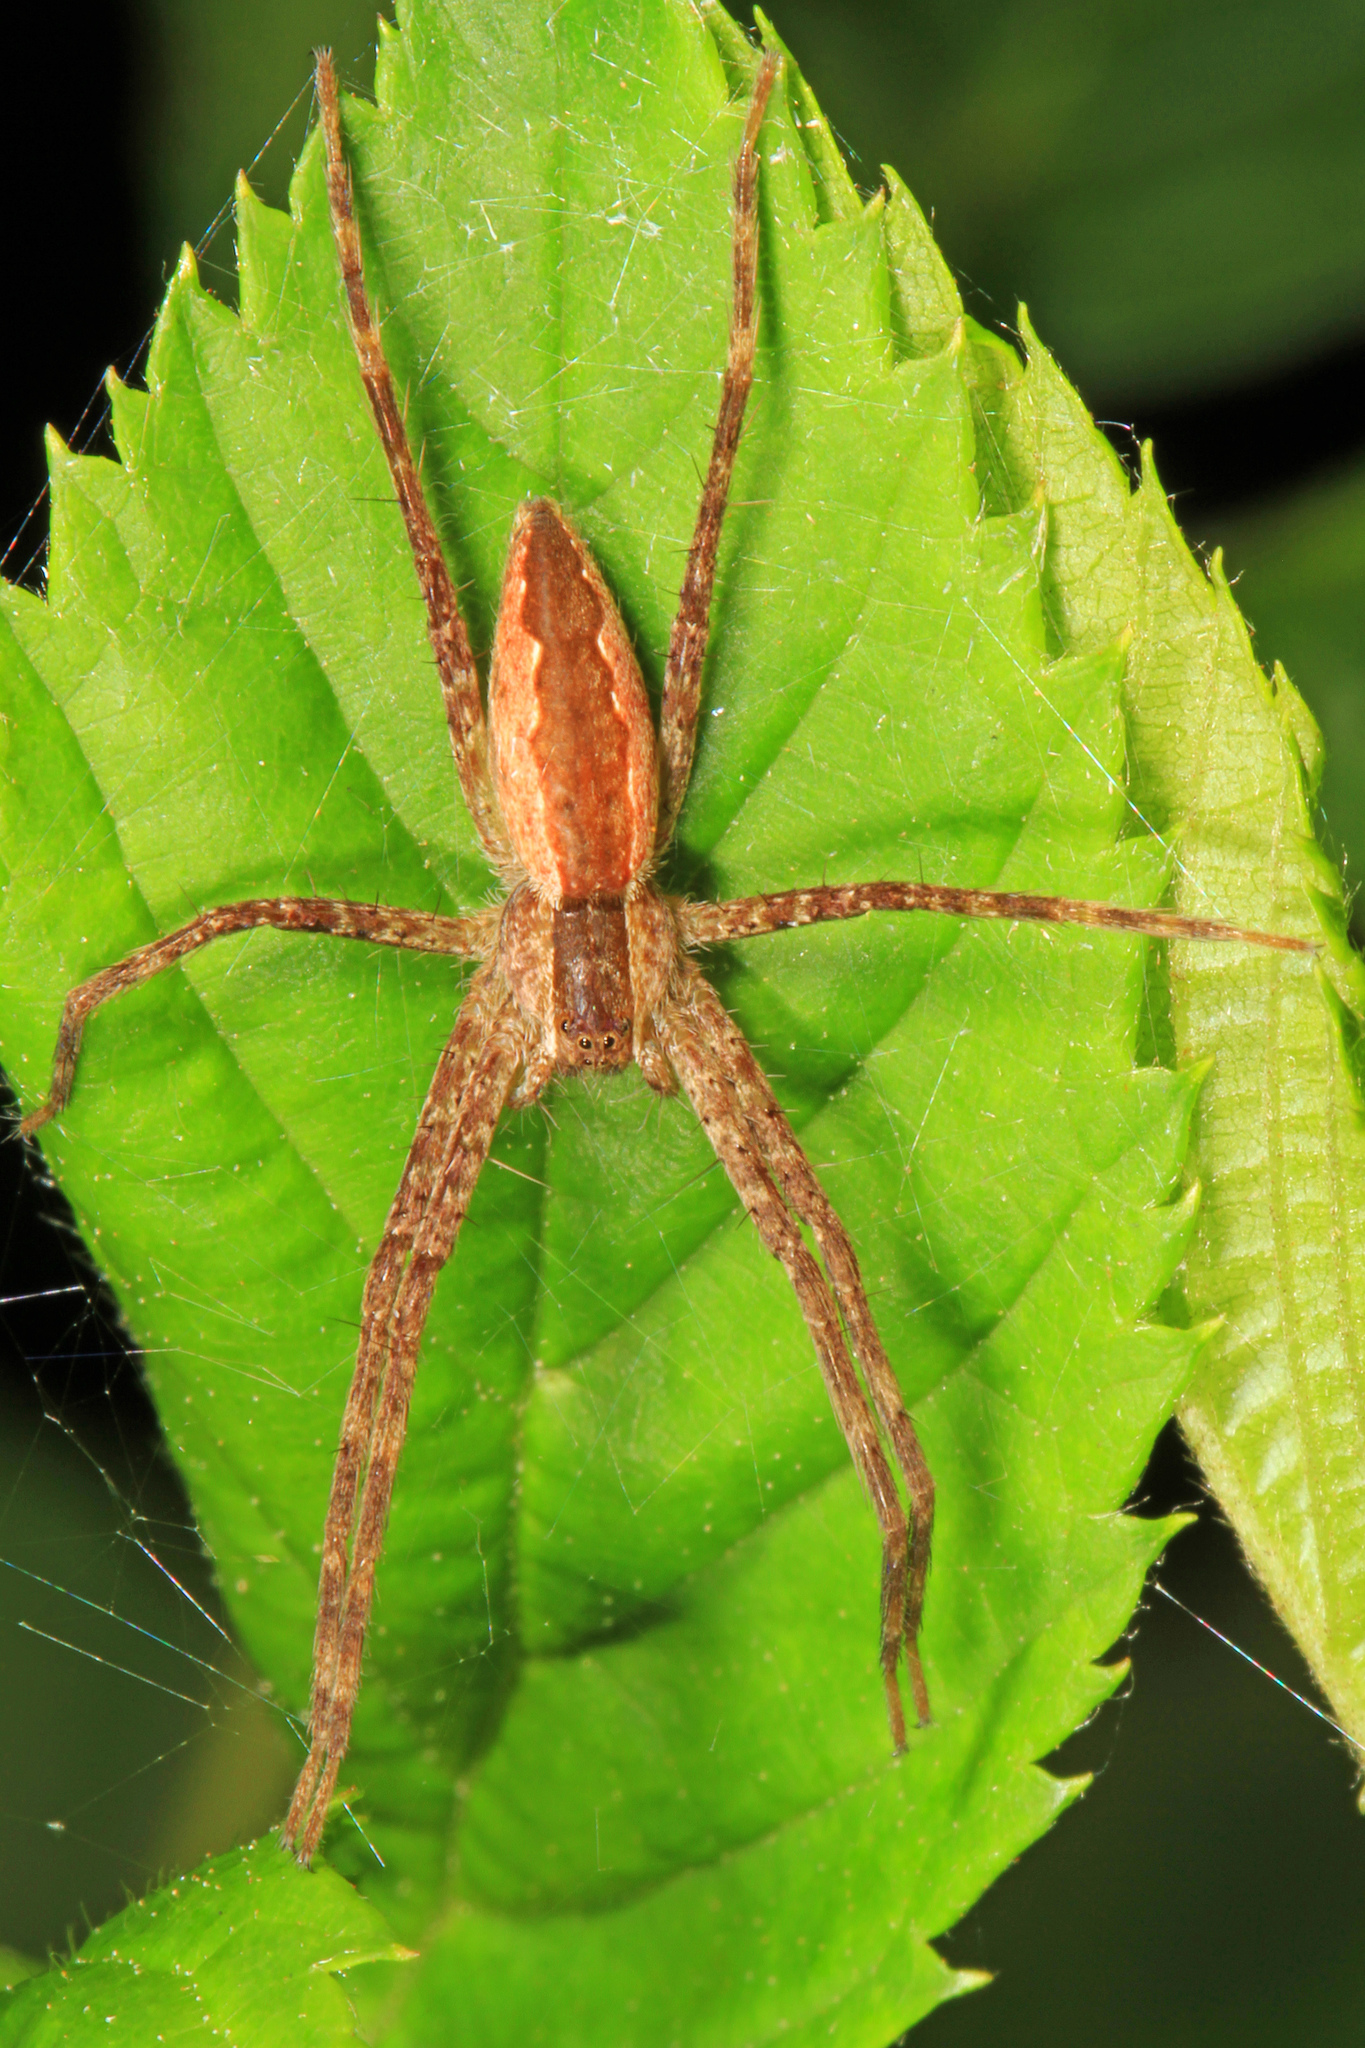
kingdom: Animalia
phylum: Arthropoda
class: Arachnida
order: Araneae
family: Pisauridae
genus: Pisaurina
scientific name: Pisaurina mira
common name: American nursery web spider
